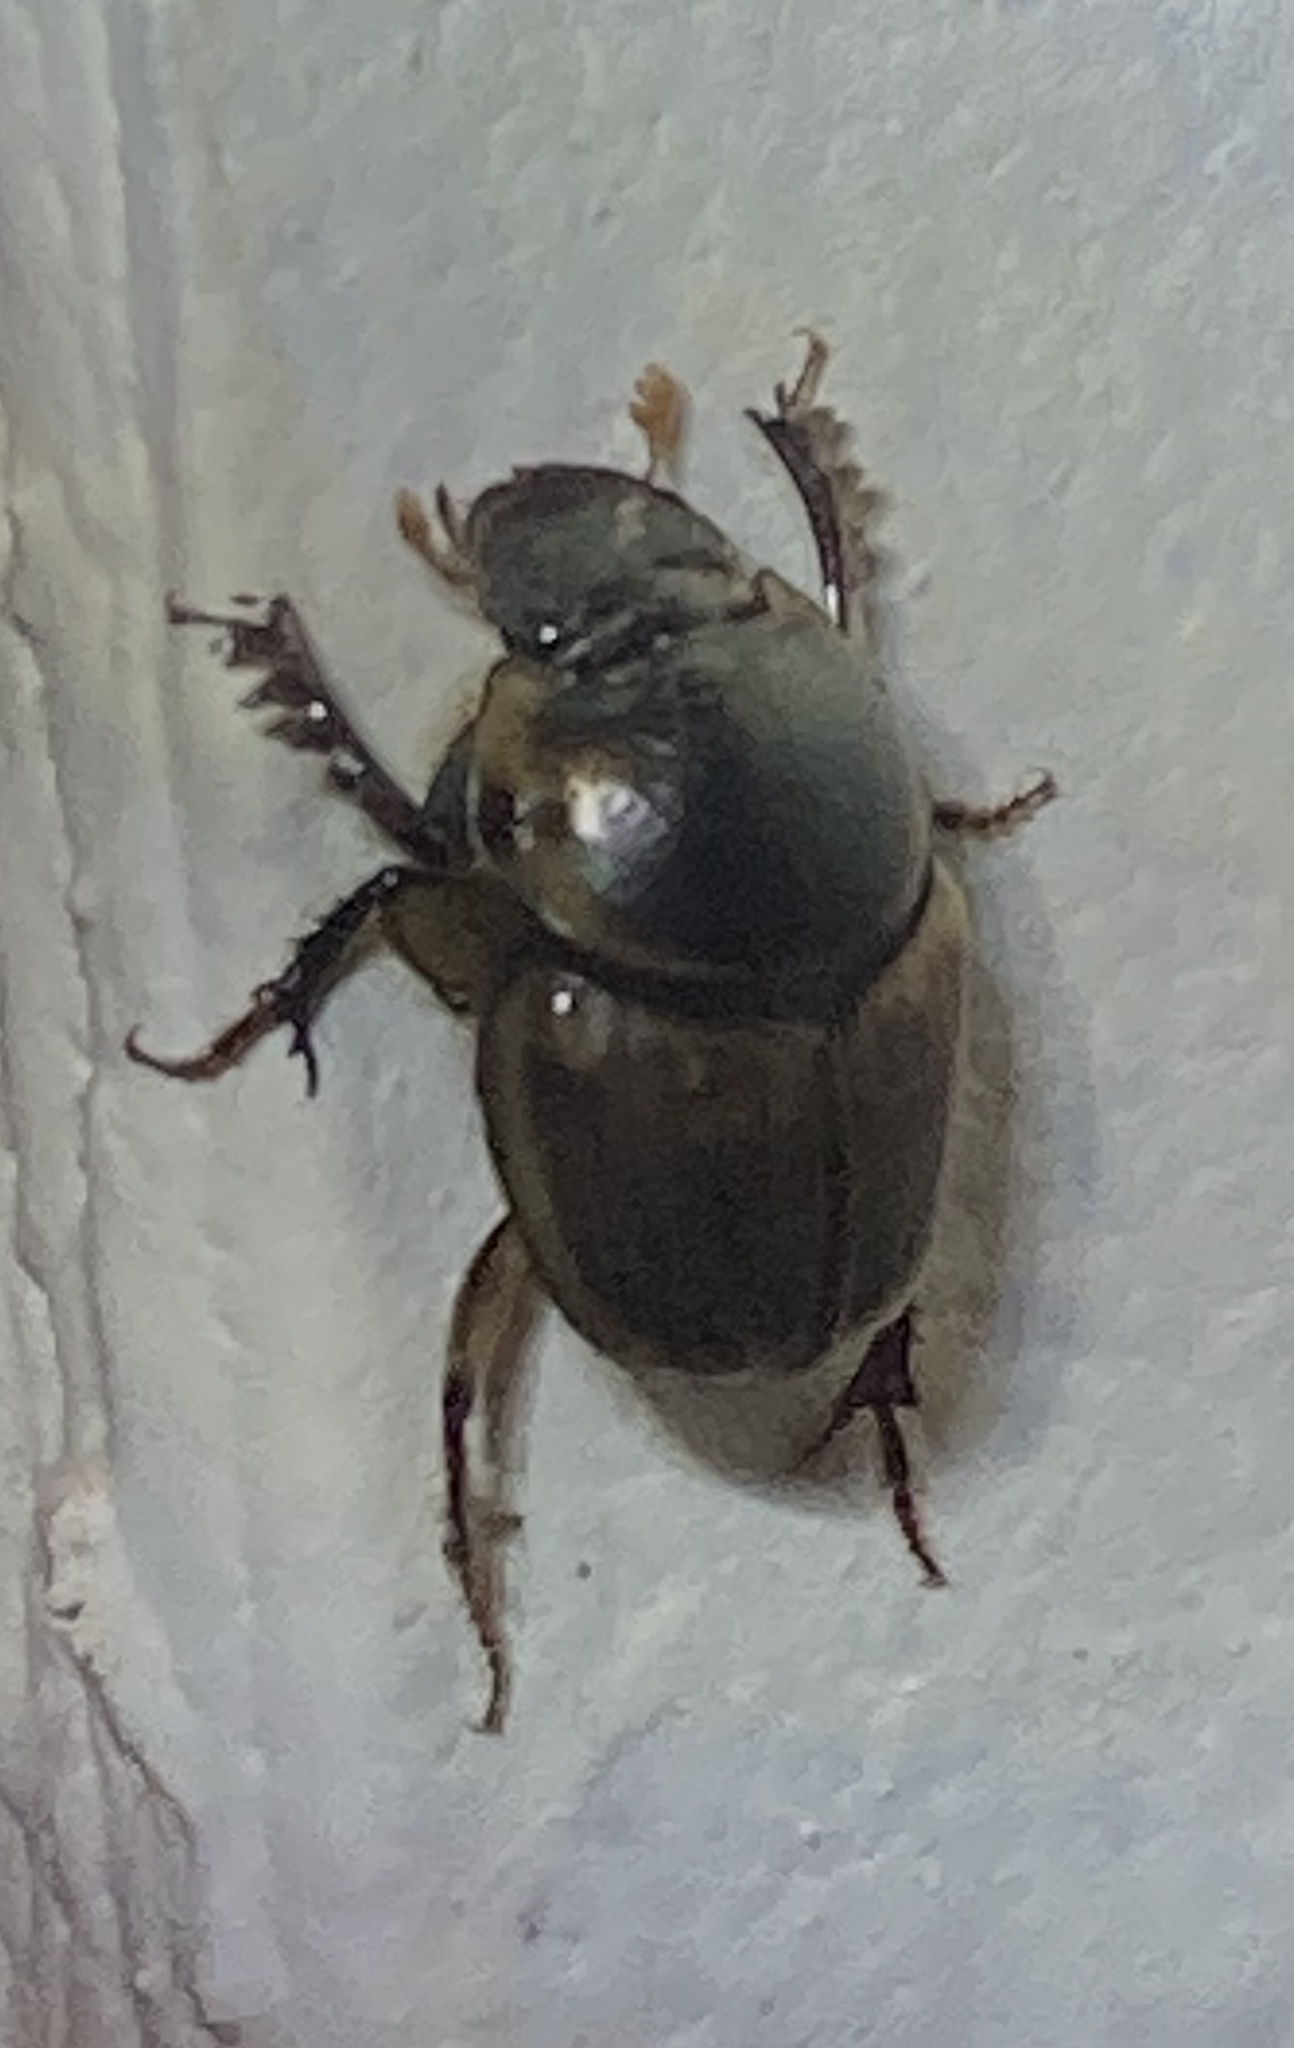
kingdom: Animalia
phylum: Arthropoda
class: Insecta
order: Coleoptera
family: Scarabaeidae
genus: Digitonthophagus
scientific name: Digitonthophagus gazella
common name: Brown dung beetle
